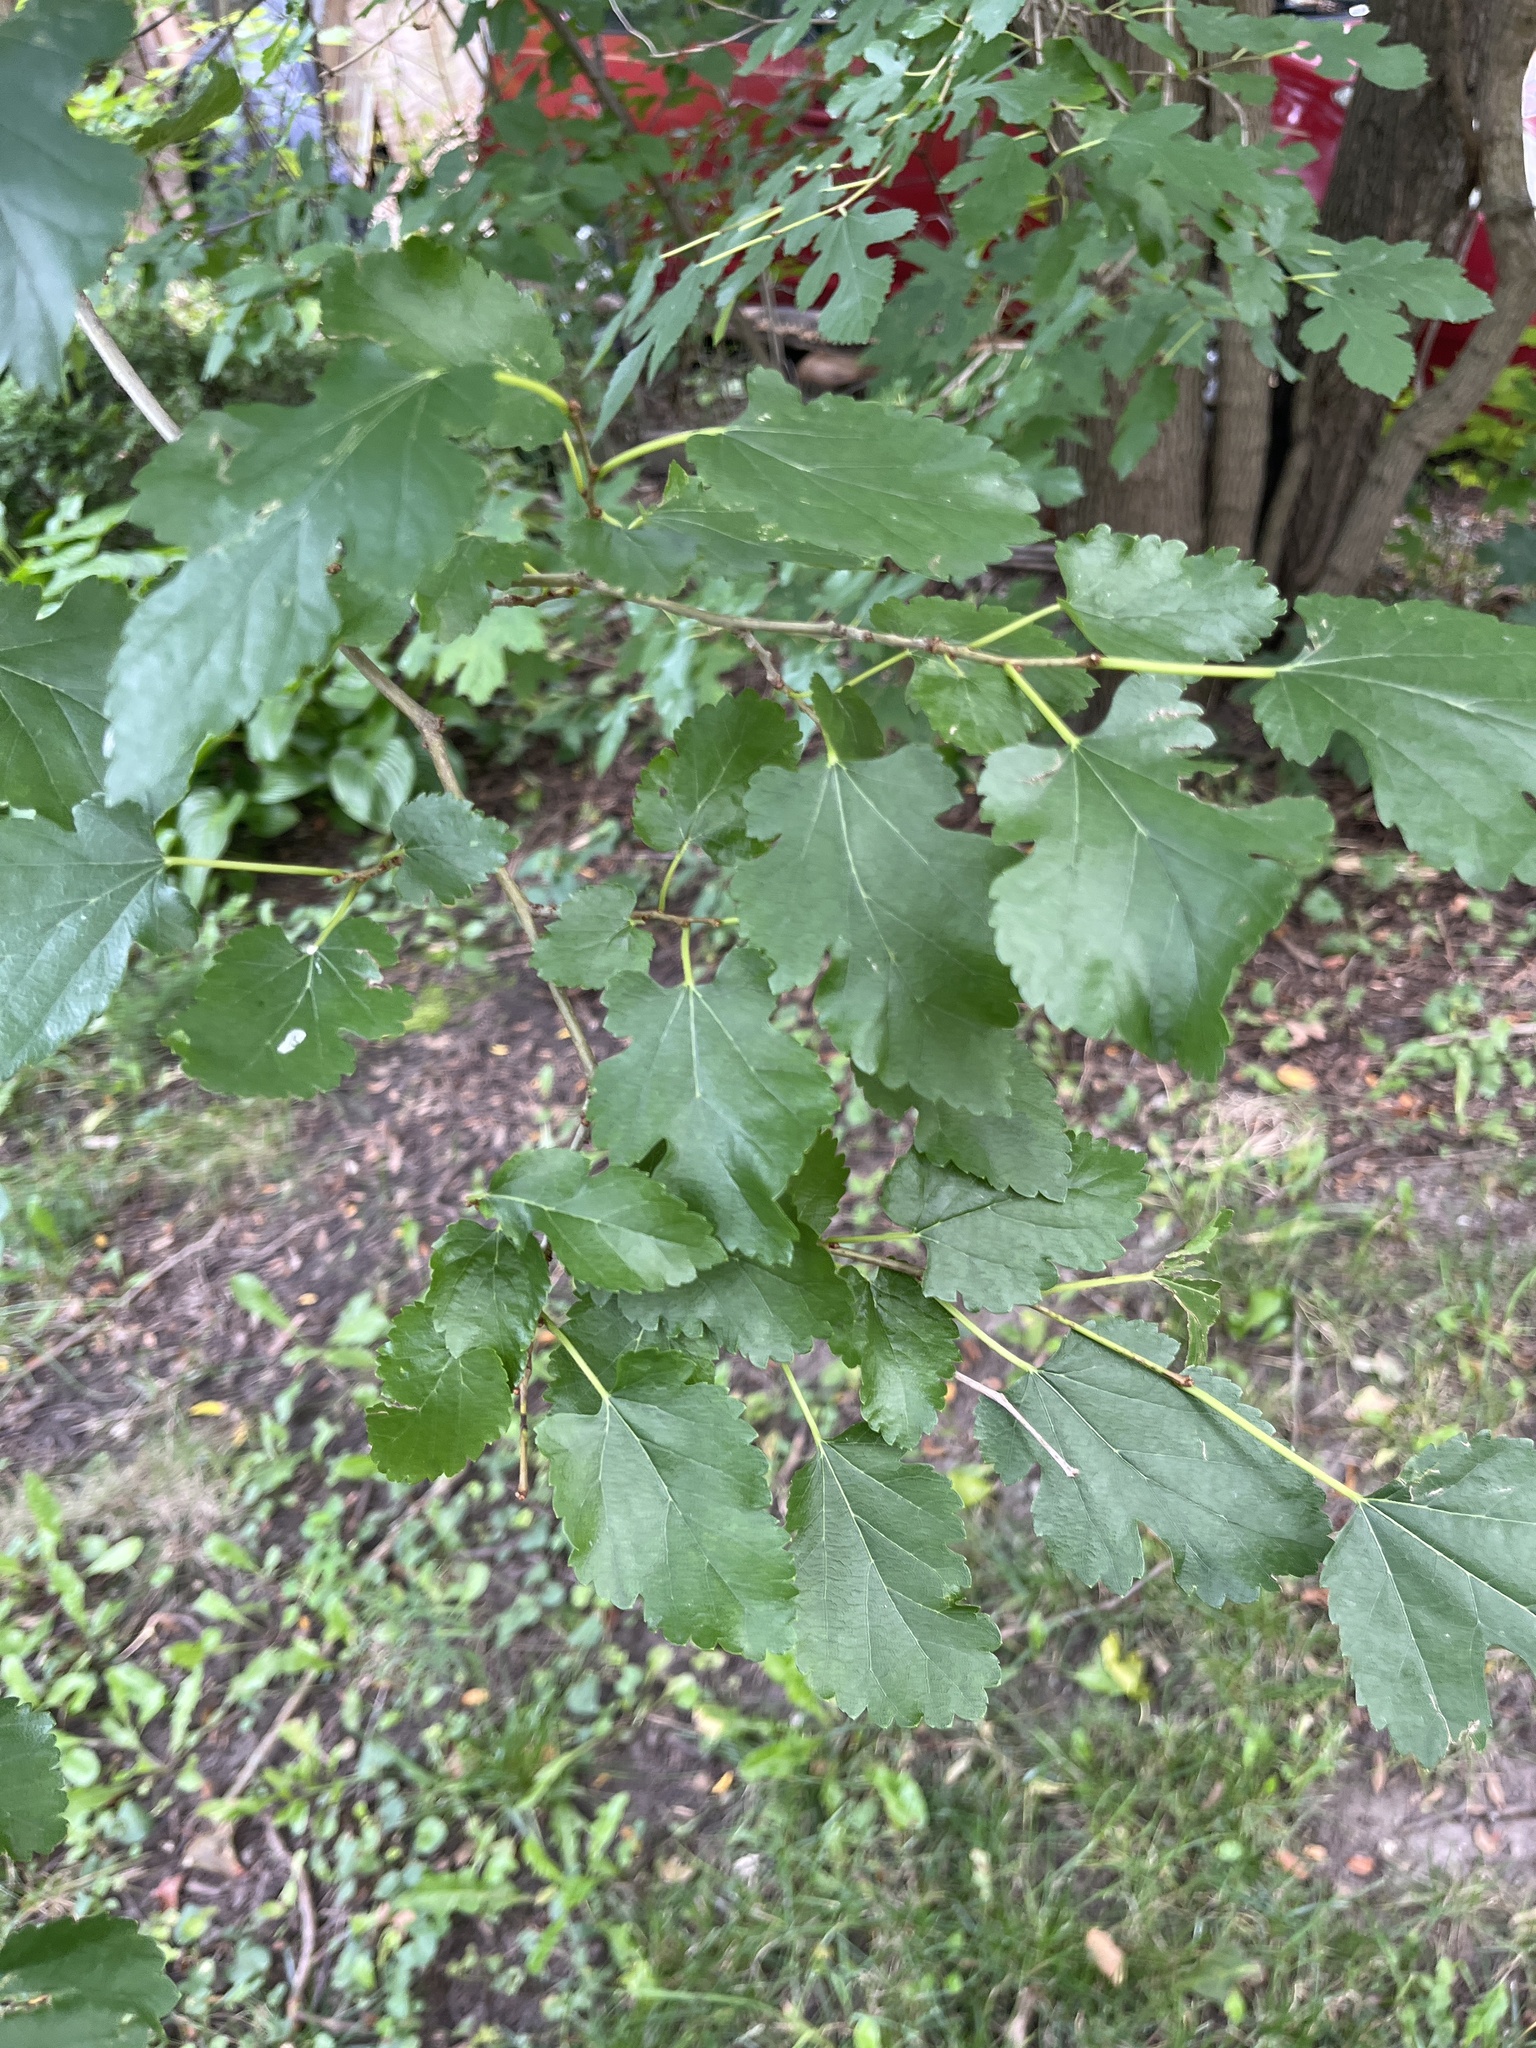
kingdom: Plantae
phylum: Tracheophyta
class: Magnoliopsida
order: Rosales
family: Moraceae
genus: Morus
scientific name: Morus alba
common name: White mulberry
